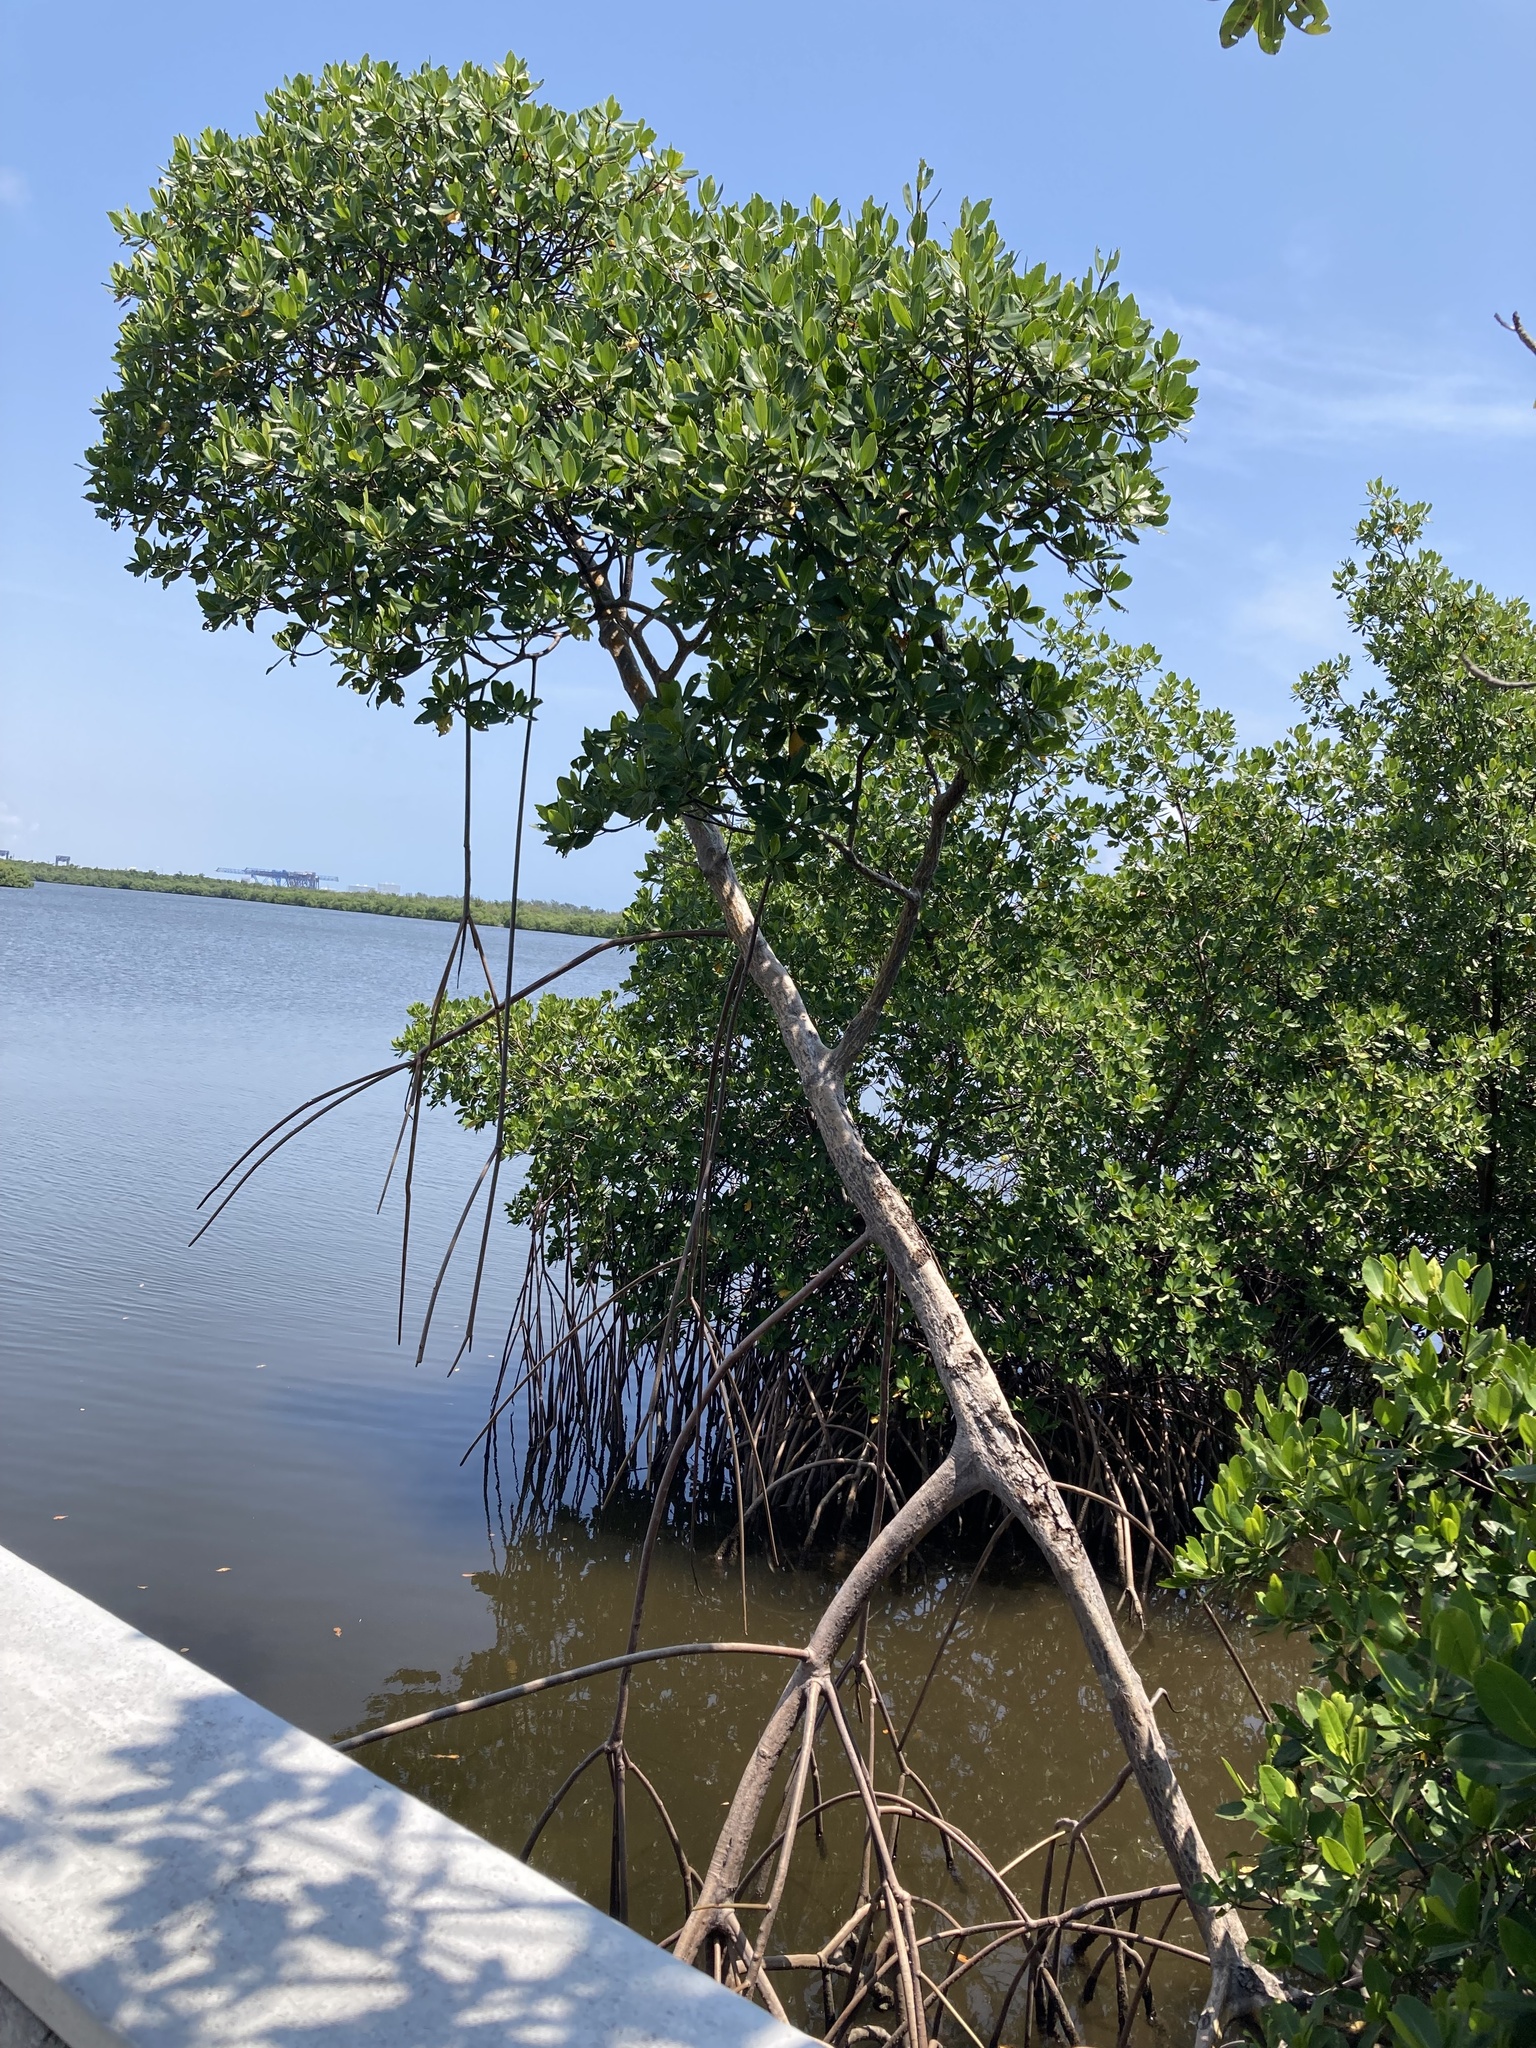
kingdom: Plantae
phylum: Tracheophyta
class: Magnoliopsida
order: Malpighiales
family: Rhizophoraceae
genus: Rhizophora
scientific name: Rhizophora mangle
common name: Red mangrove
